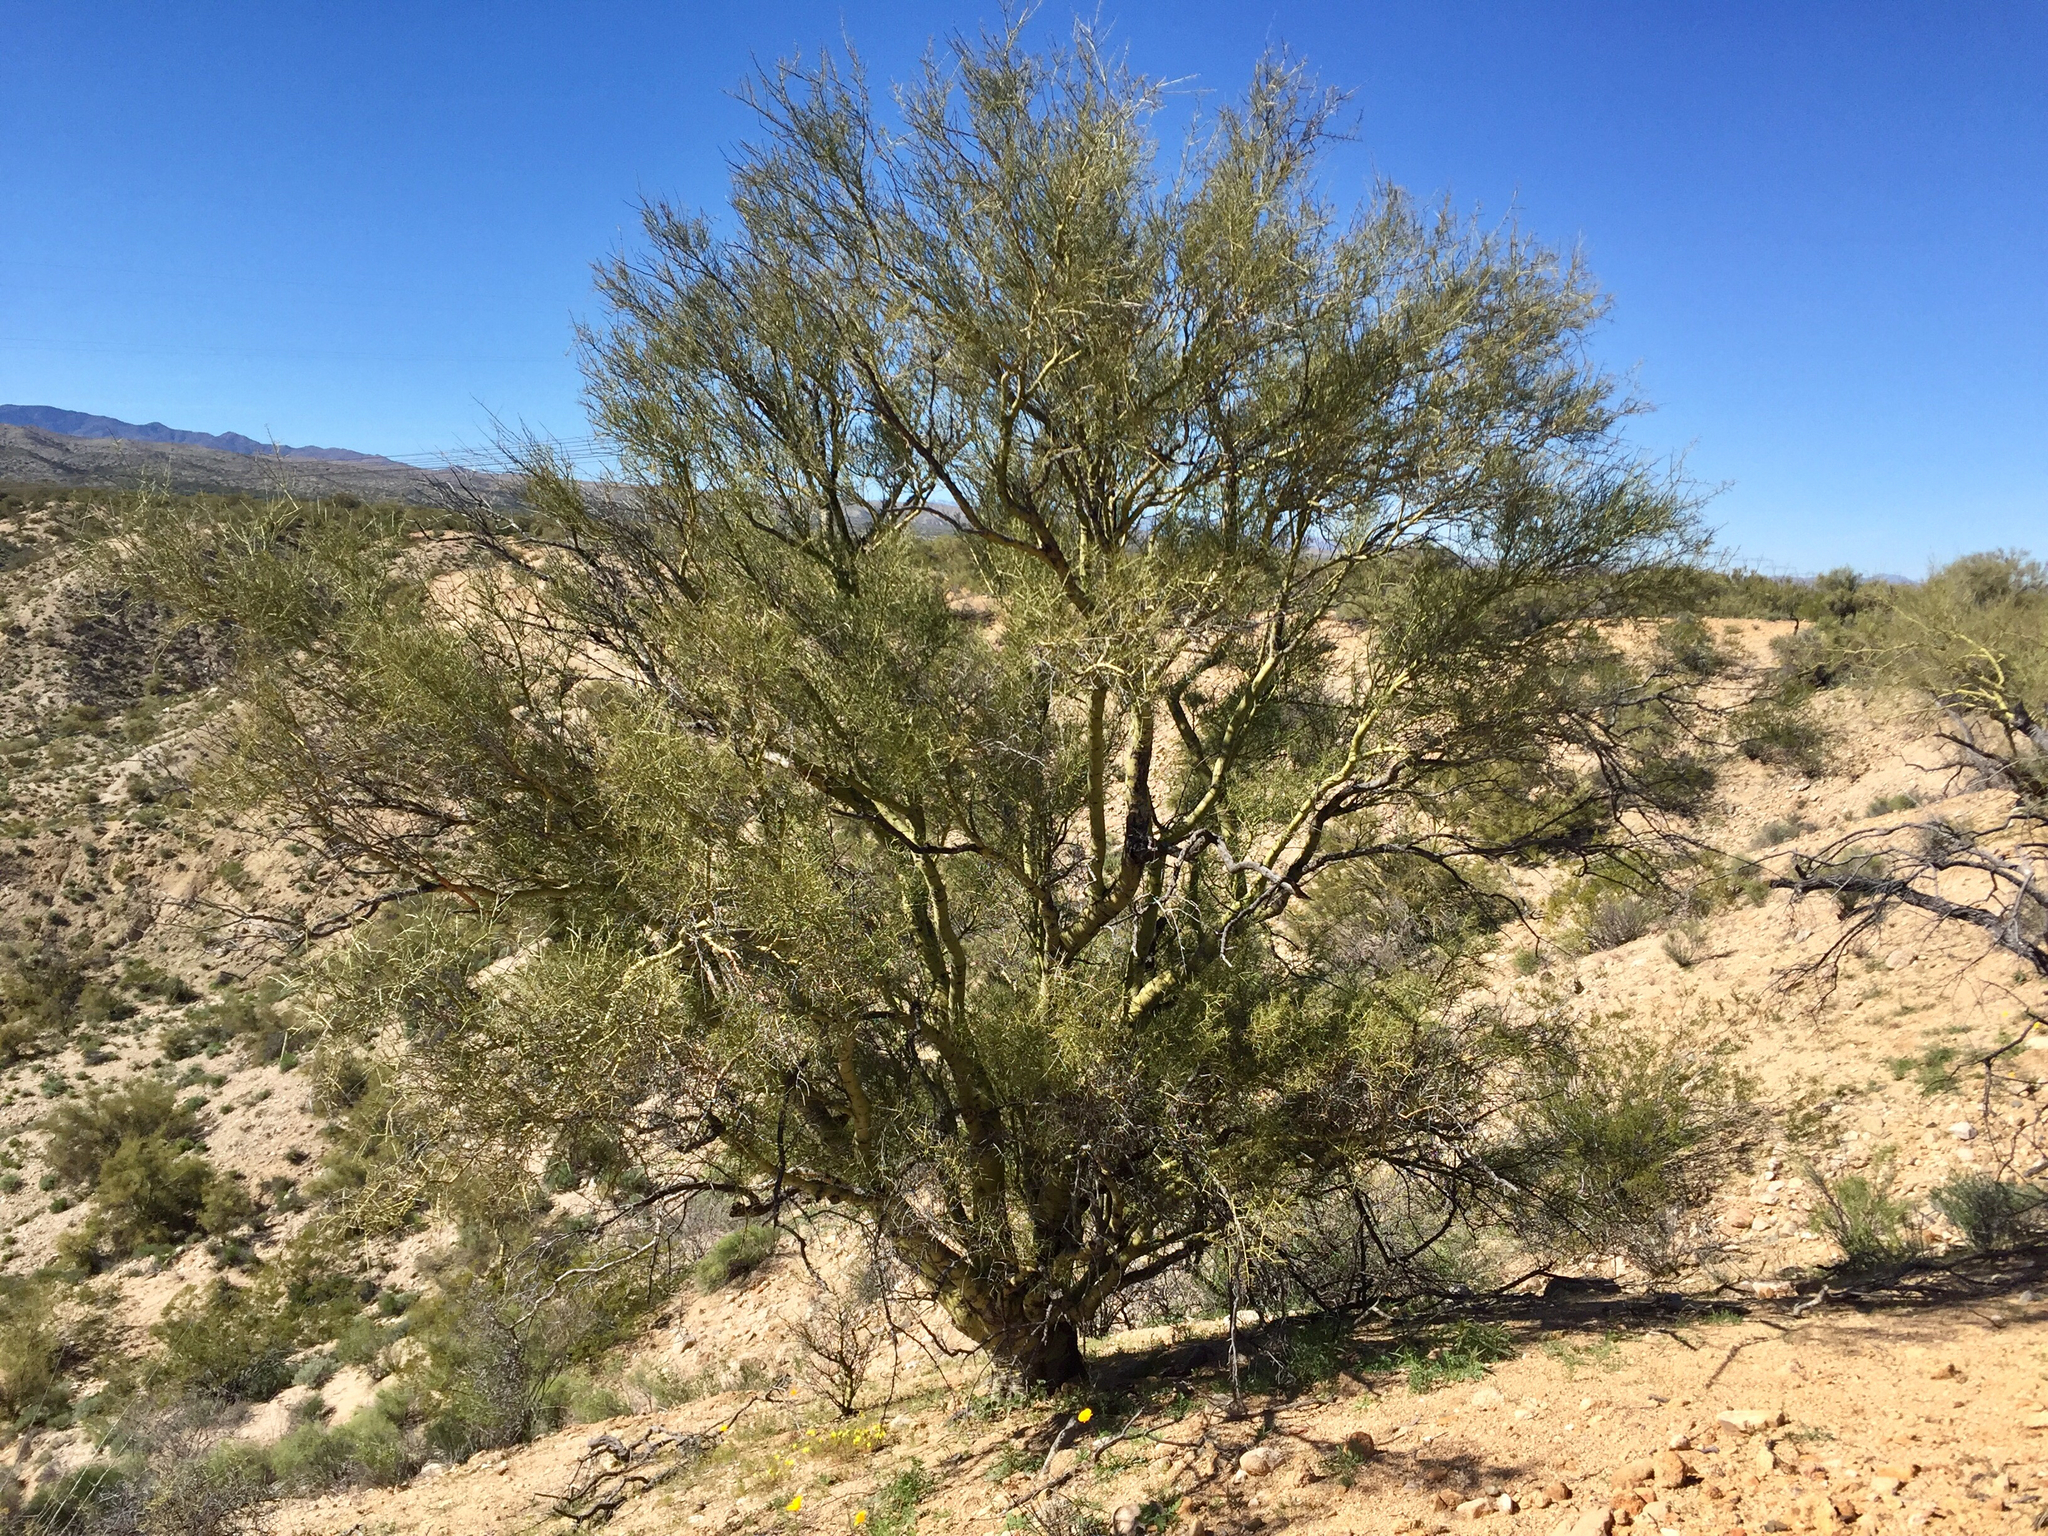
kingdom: Plantae
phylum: Tracheophyta
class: Magnoliopsida
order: Fabales
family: Fabaceae
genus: Parkinsonia
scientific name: Parkinsonia microphylla
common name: Yellow paloverde
